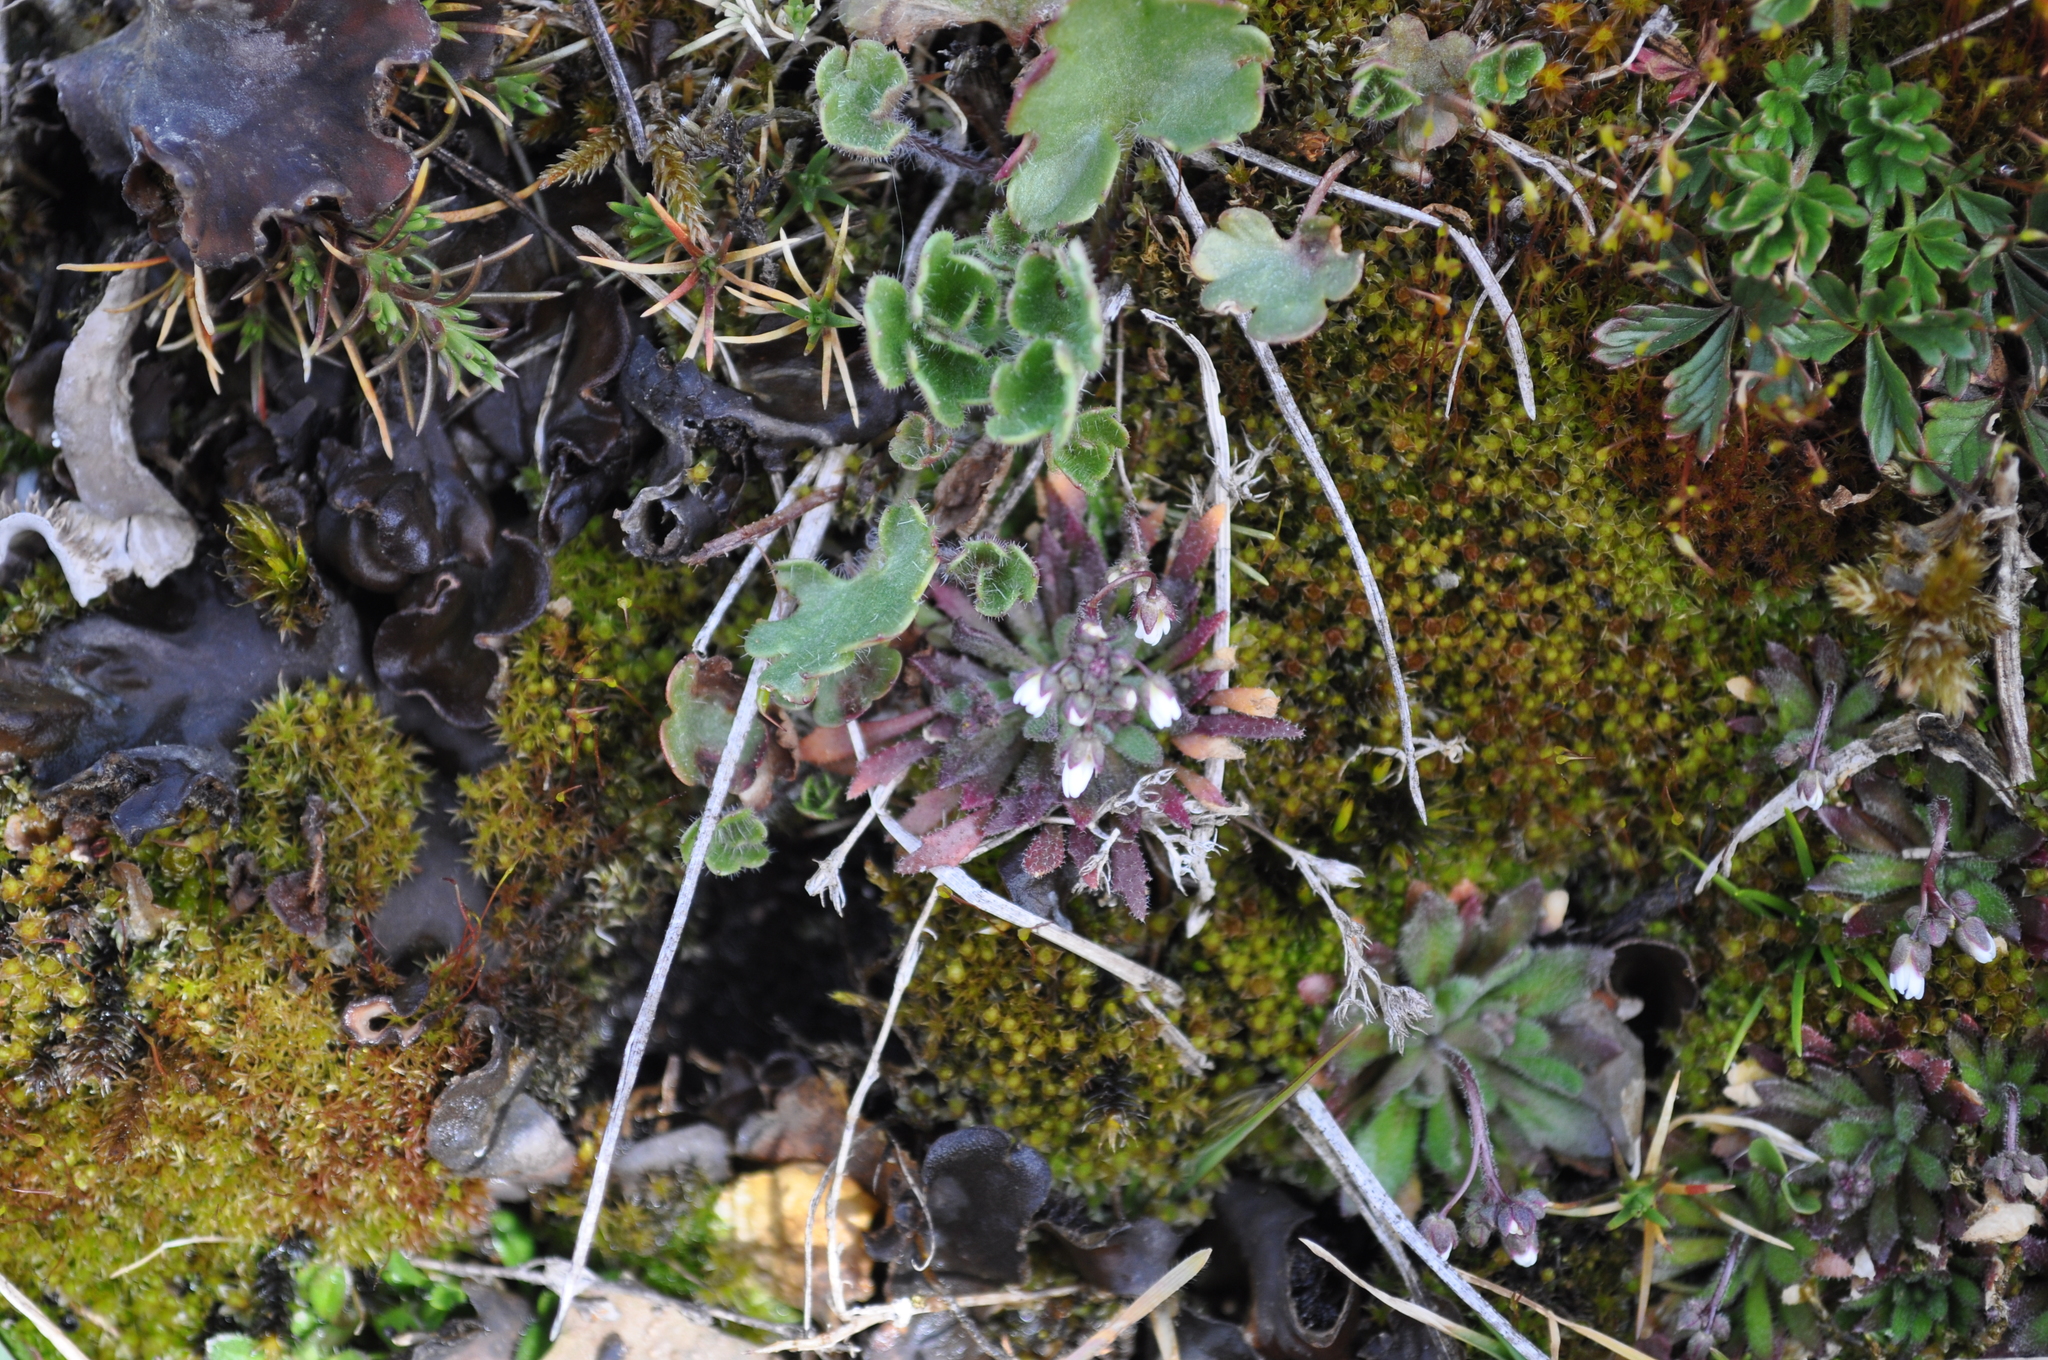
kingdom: Plantae
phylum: Tracheophyta
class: Magnoliopsida
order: Brassicales
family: Brassicaceae
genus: Draba
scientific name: Draba verna
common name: Spring draba
